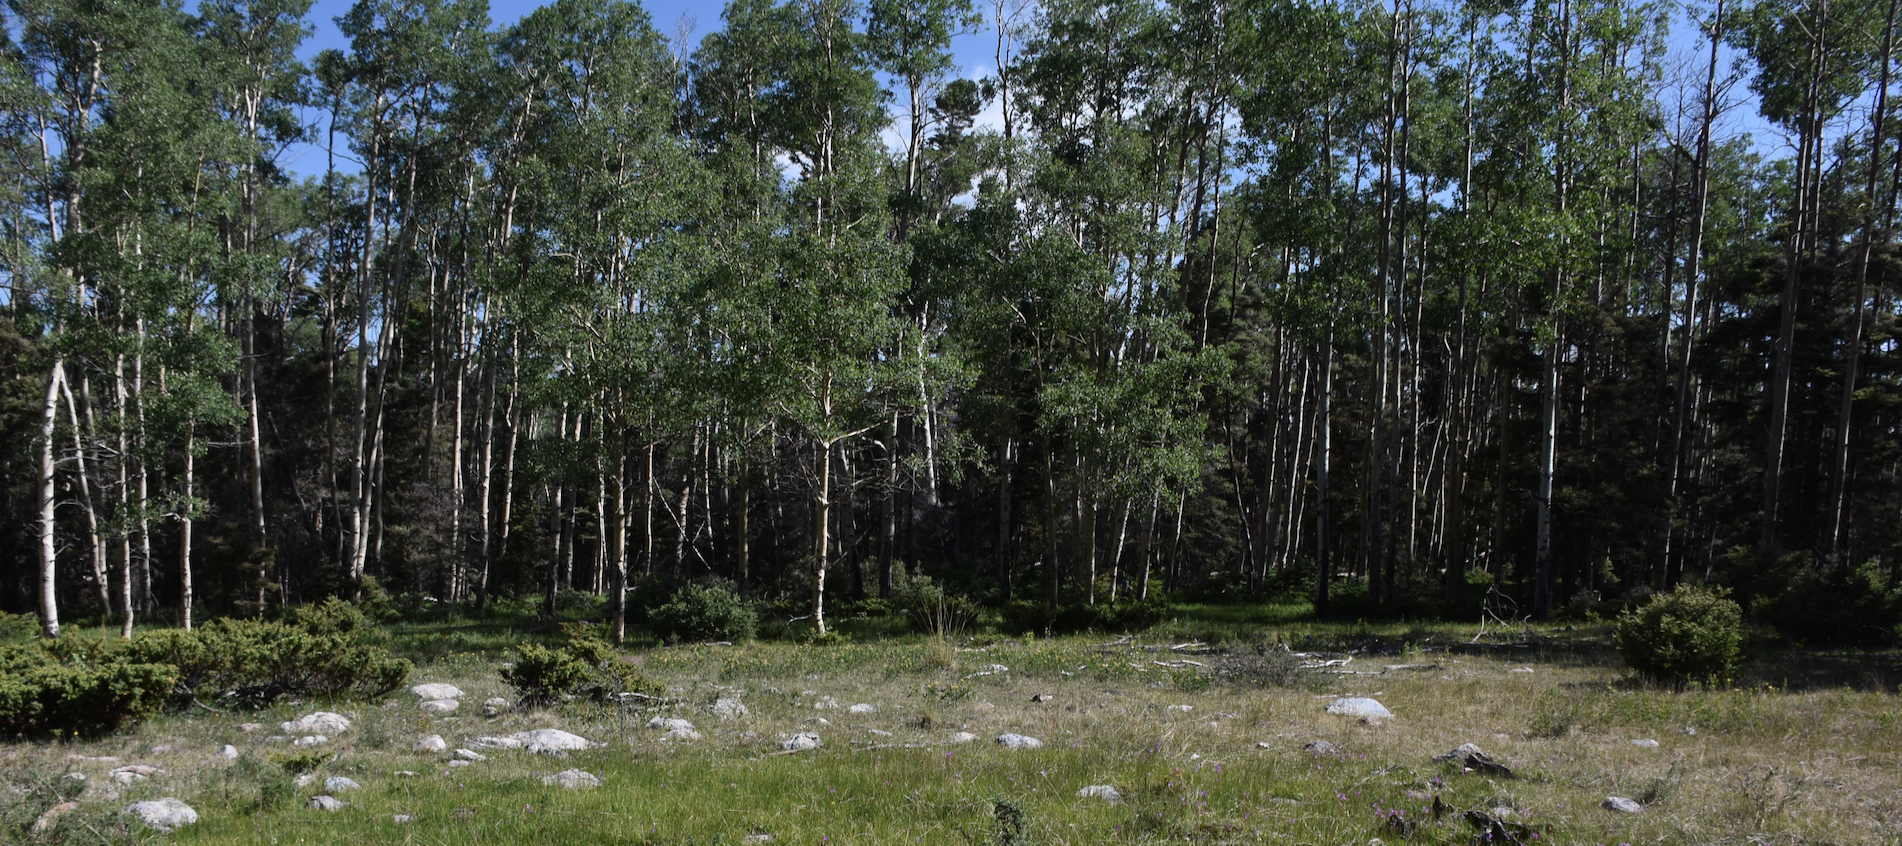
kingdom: Plantae
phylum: Tracheophyta
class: Magnoliopsida
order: Malpighiales
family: Salicaceae
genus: Populus
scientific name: Populus tremuloides
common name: Quaking aspen
